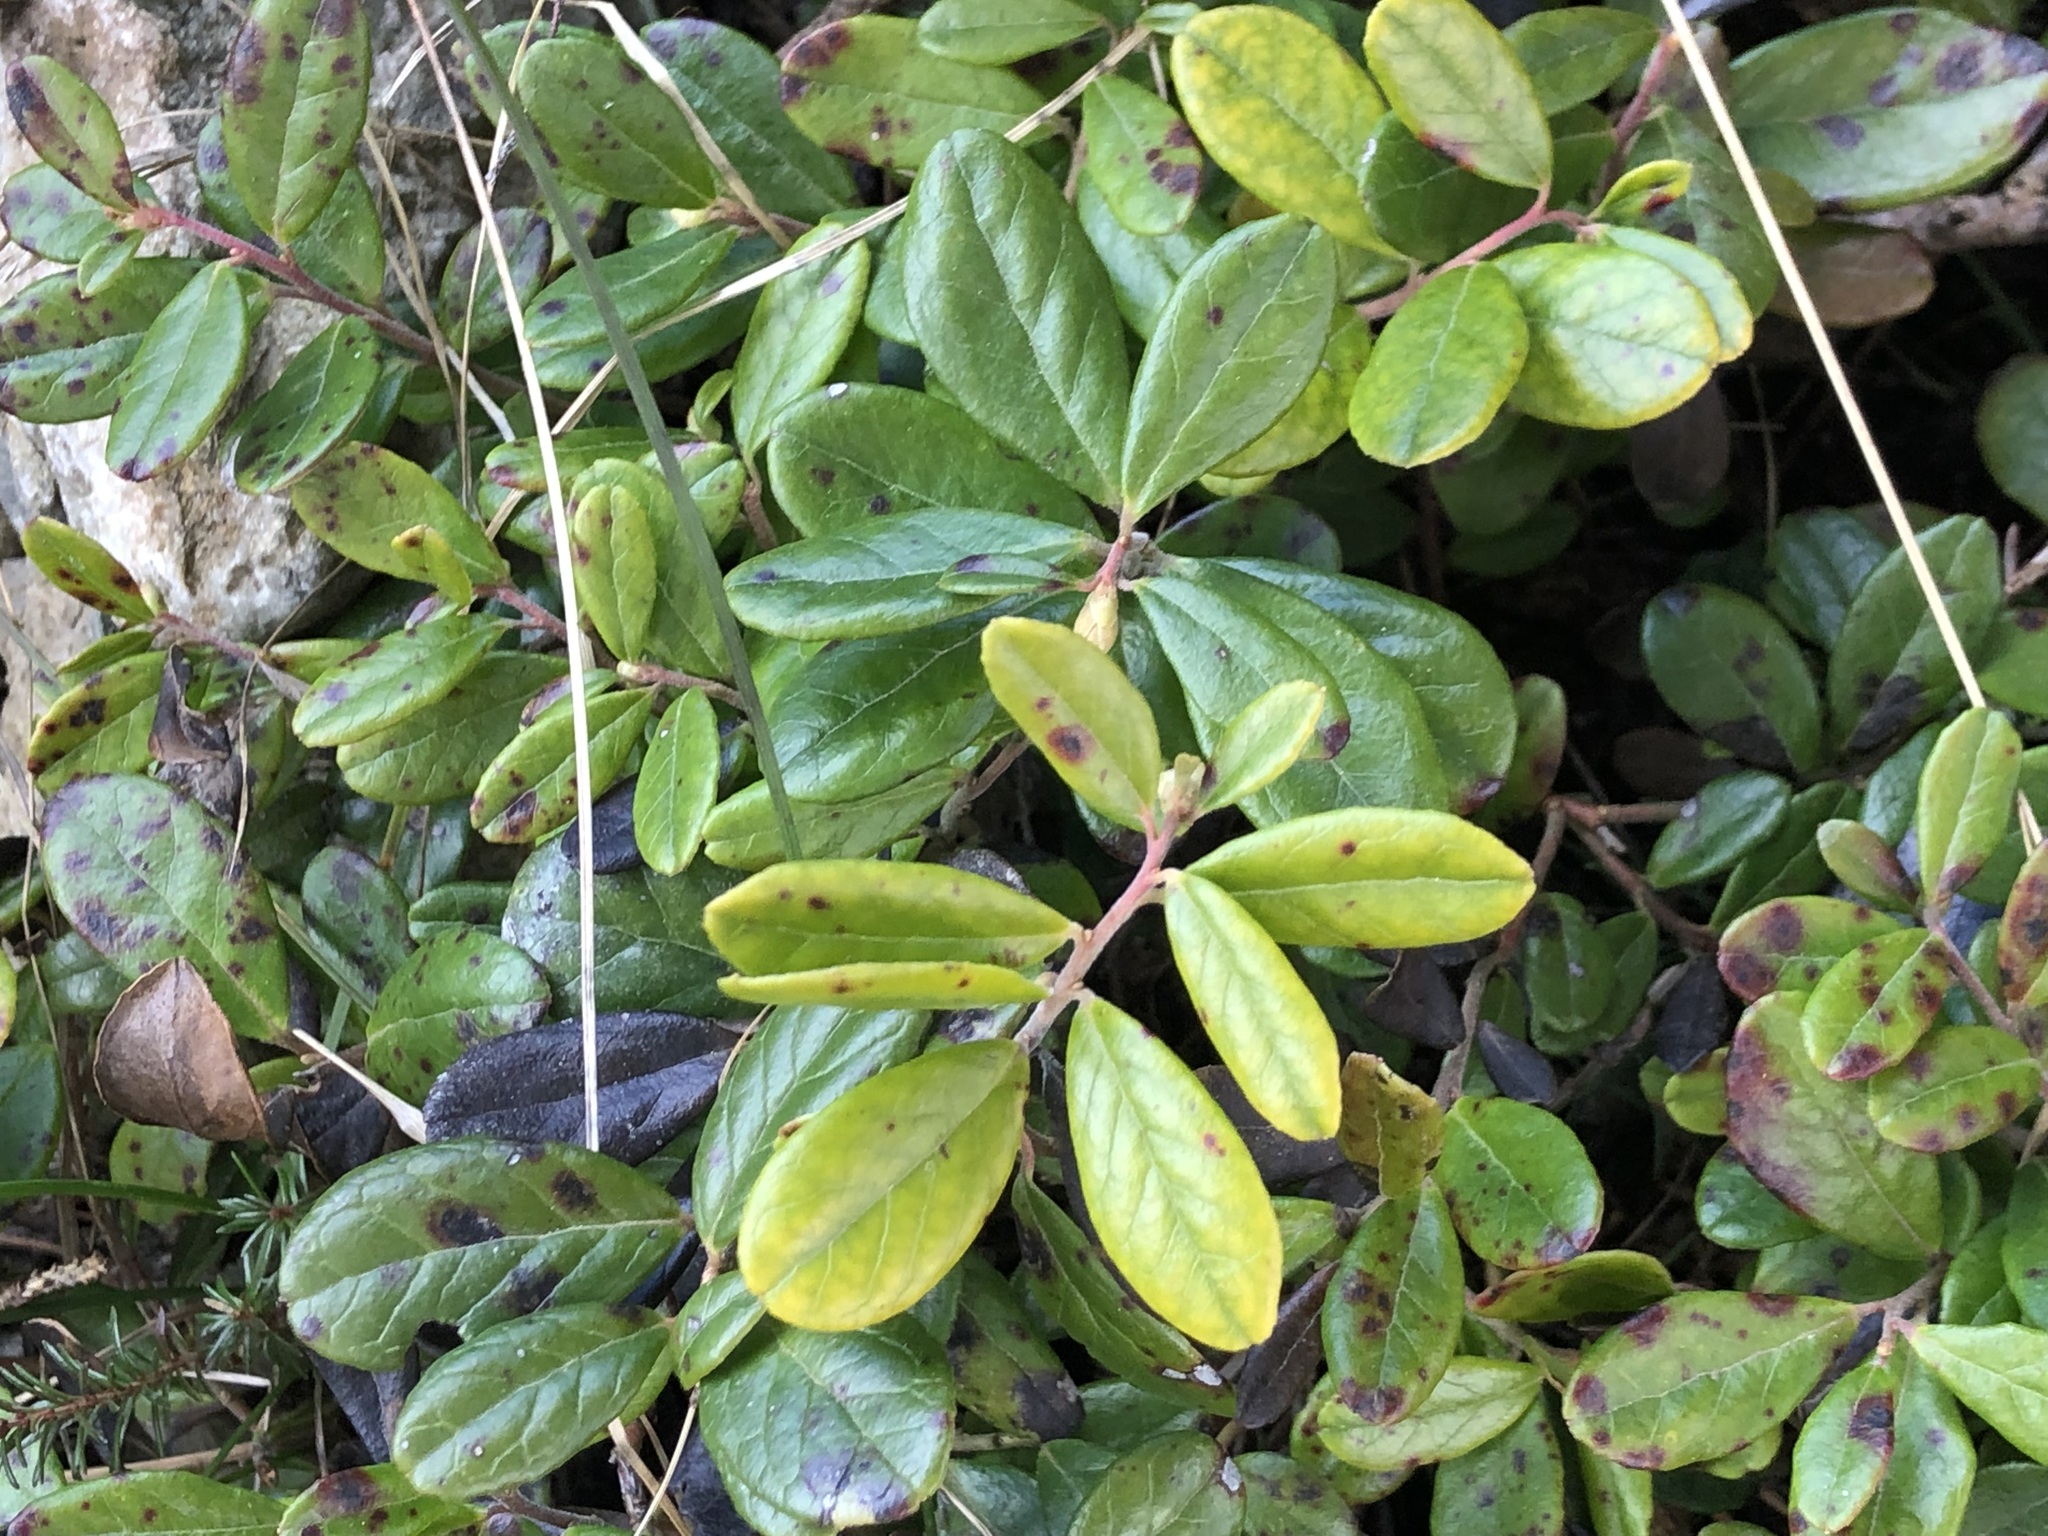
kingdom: Plantae
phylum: Tracheophyta
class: Magnoliopsida
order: Ericales
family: Ericaceae
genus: Vaccinium
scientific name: Vaccinium vitis-idaea
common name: Cowberry
